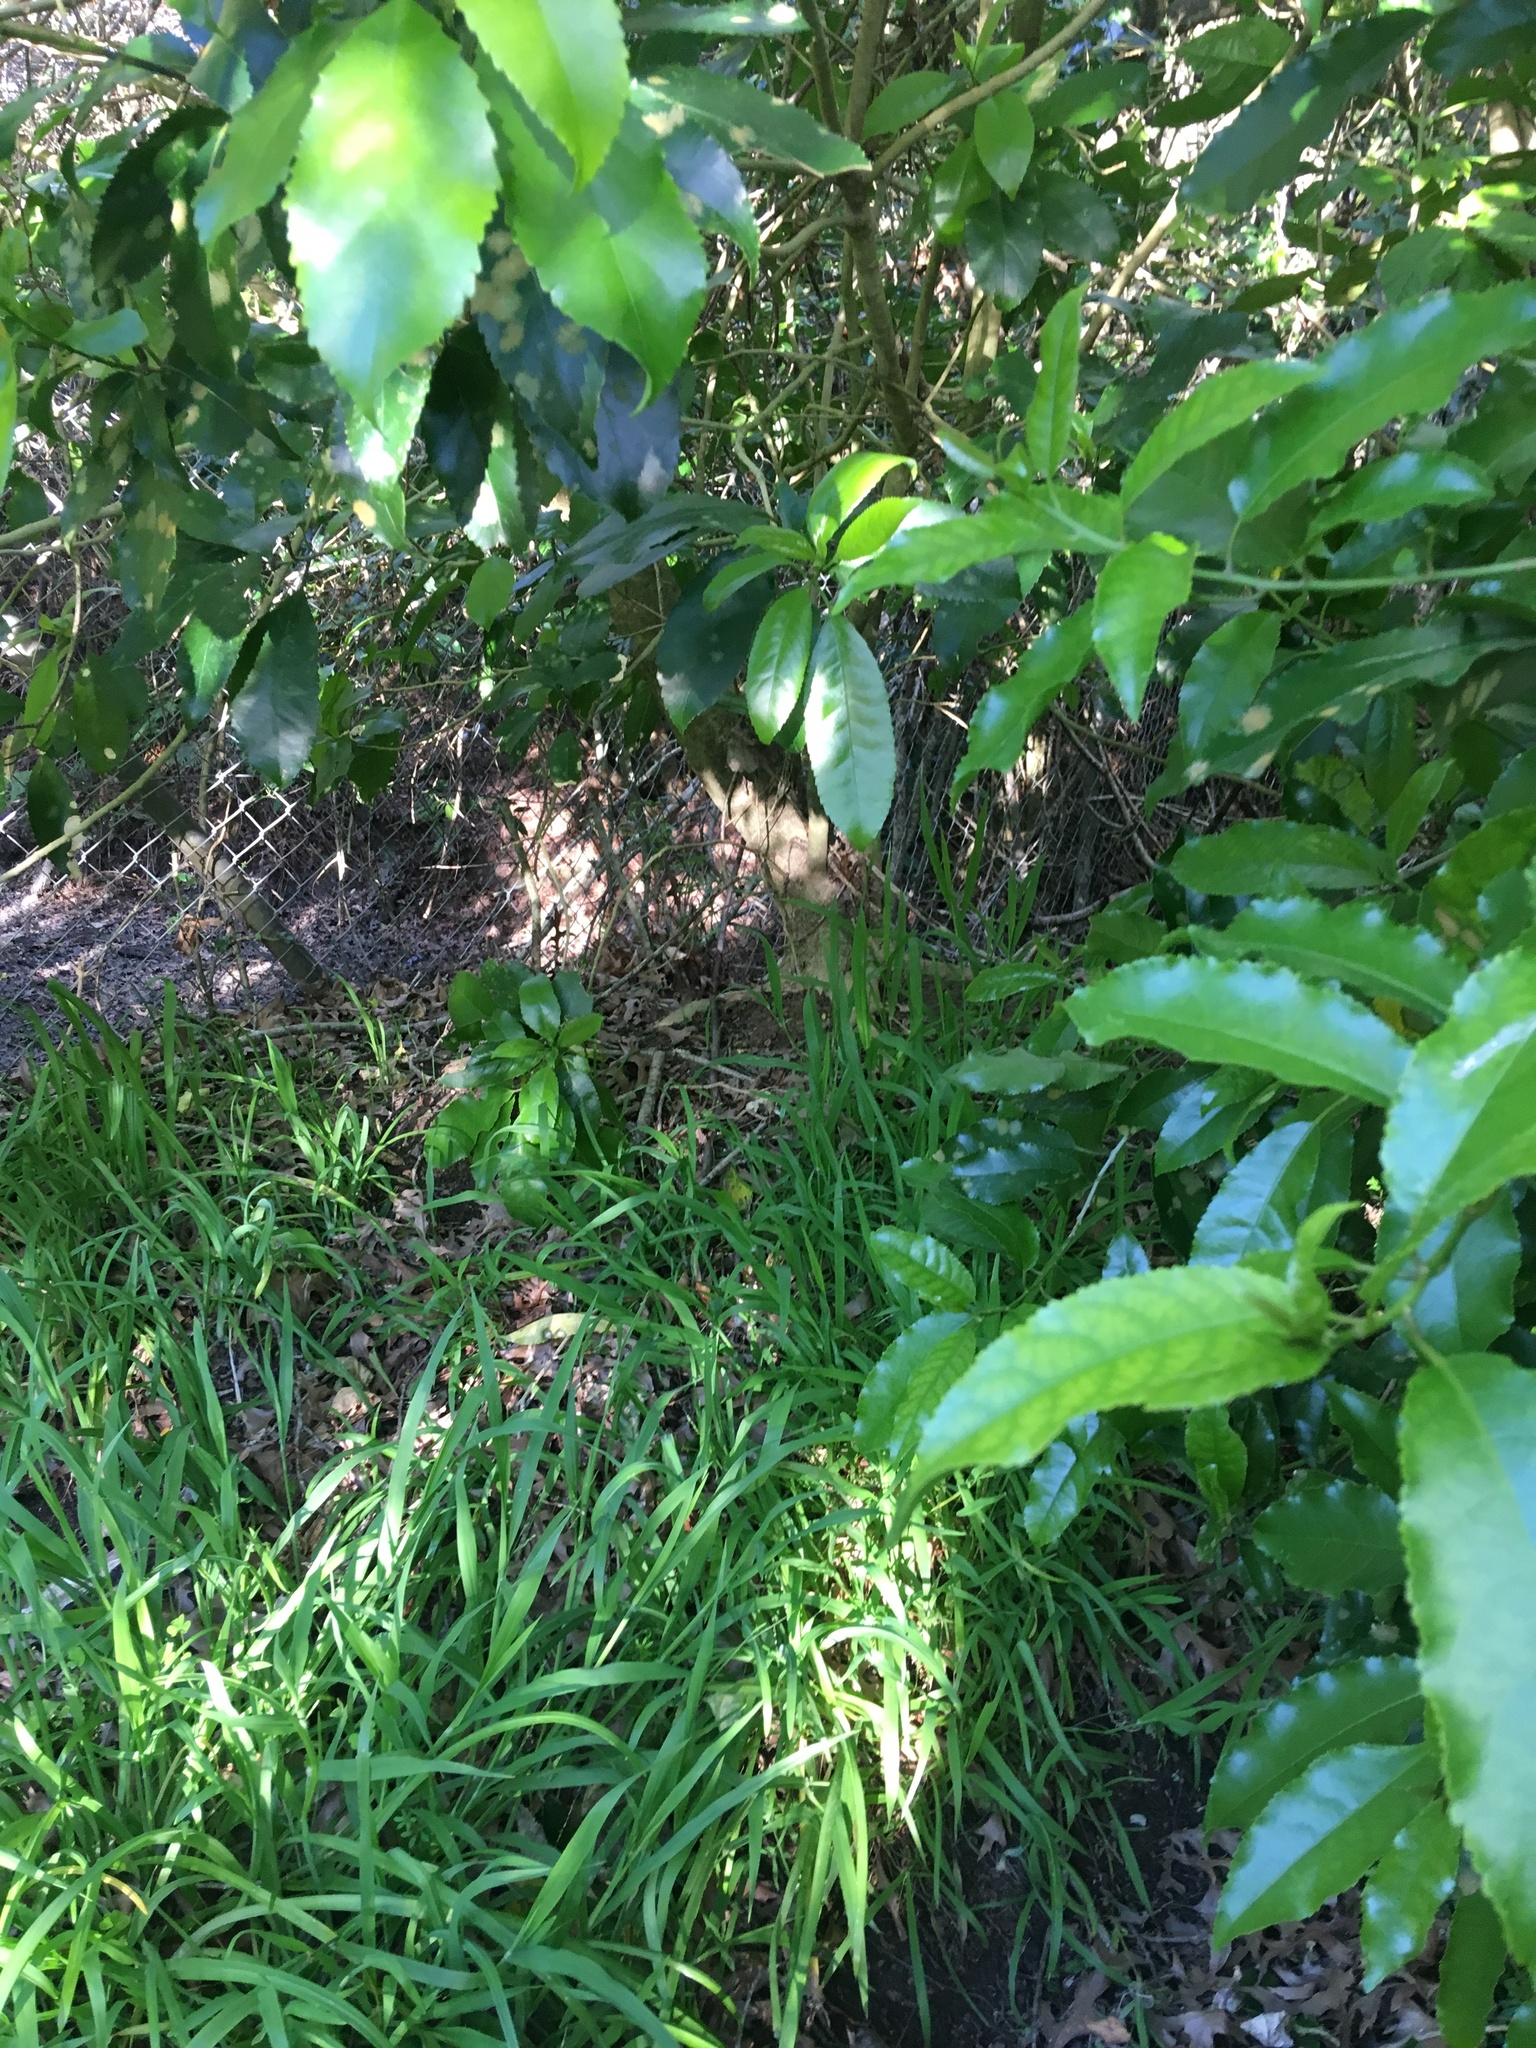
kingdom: Plantae
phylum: Tracheophyta
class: Magnoliopsida
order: Malpighiales
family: Violaceae
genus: Melicytus
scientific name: Melicytus ramiflorus
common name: Mahoe
